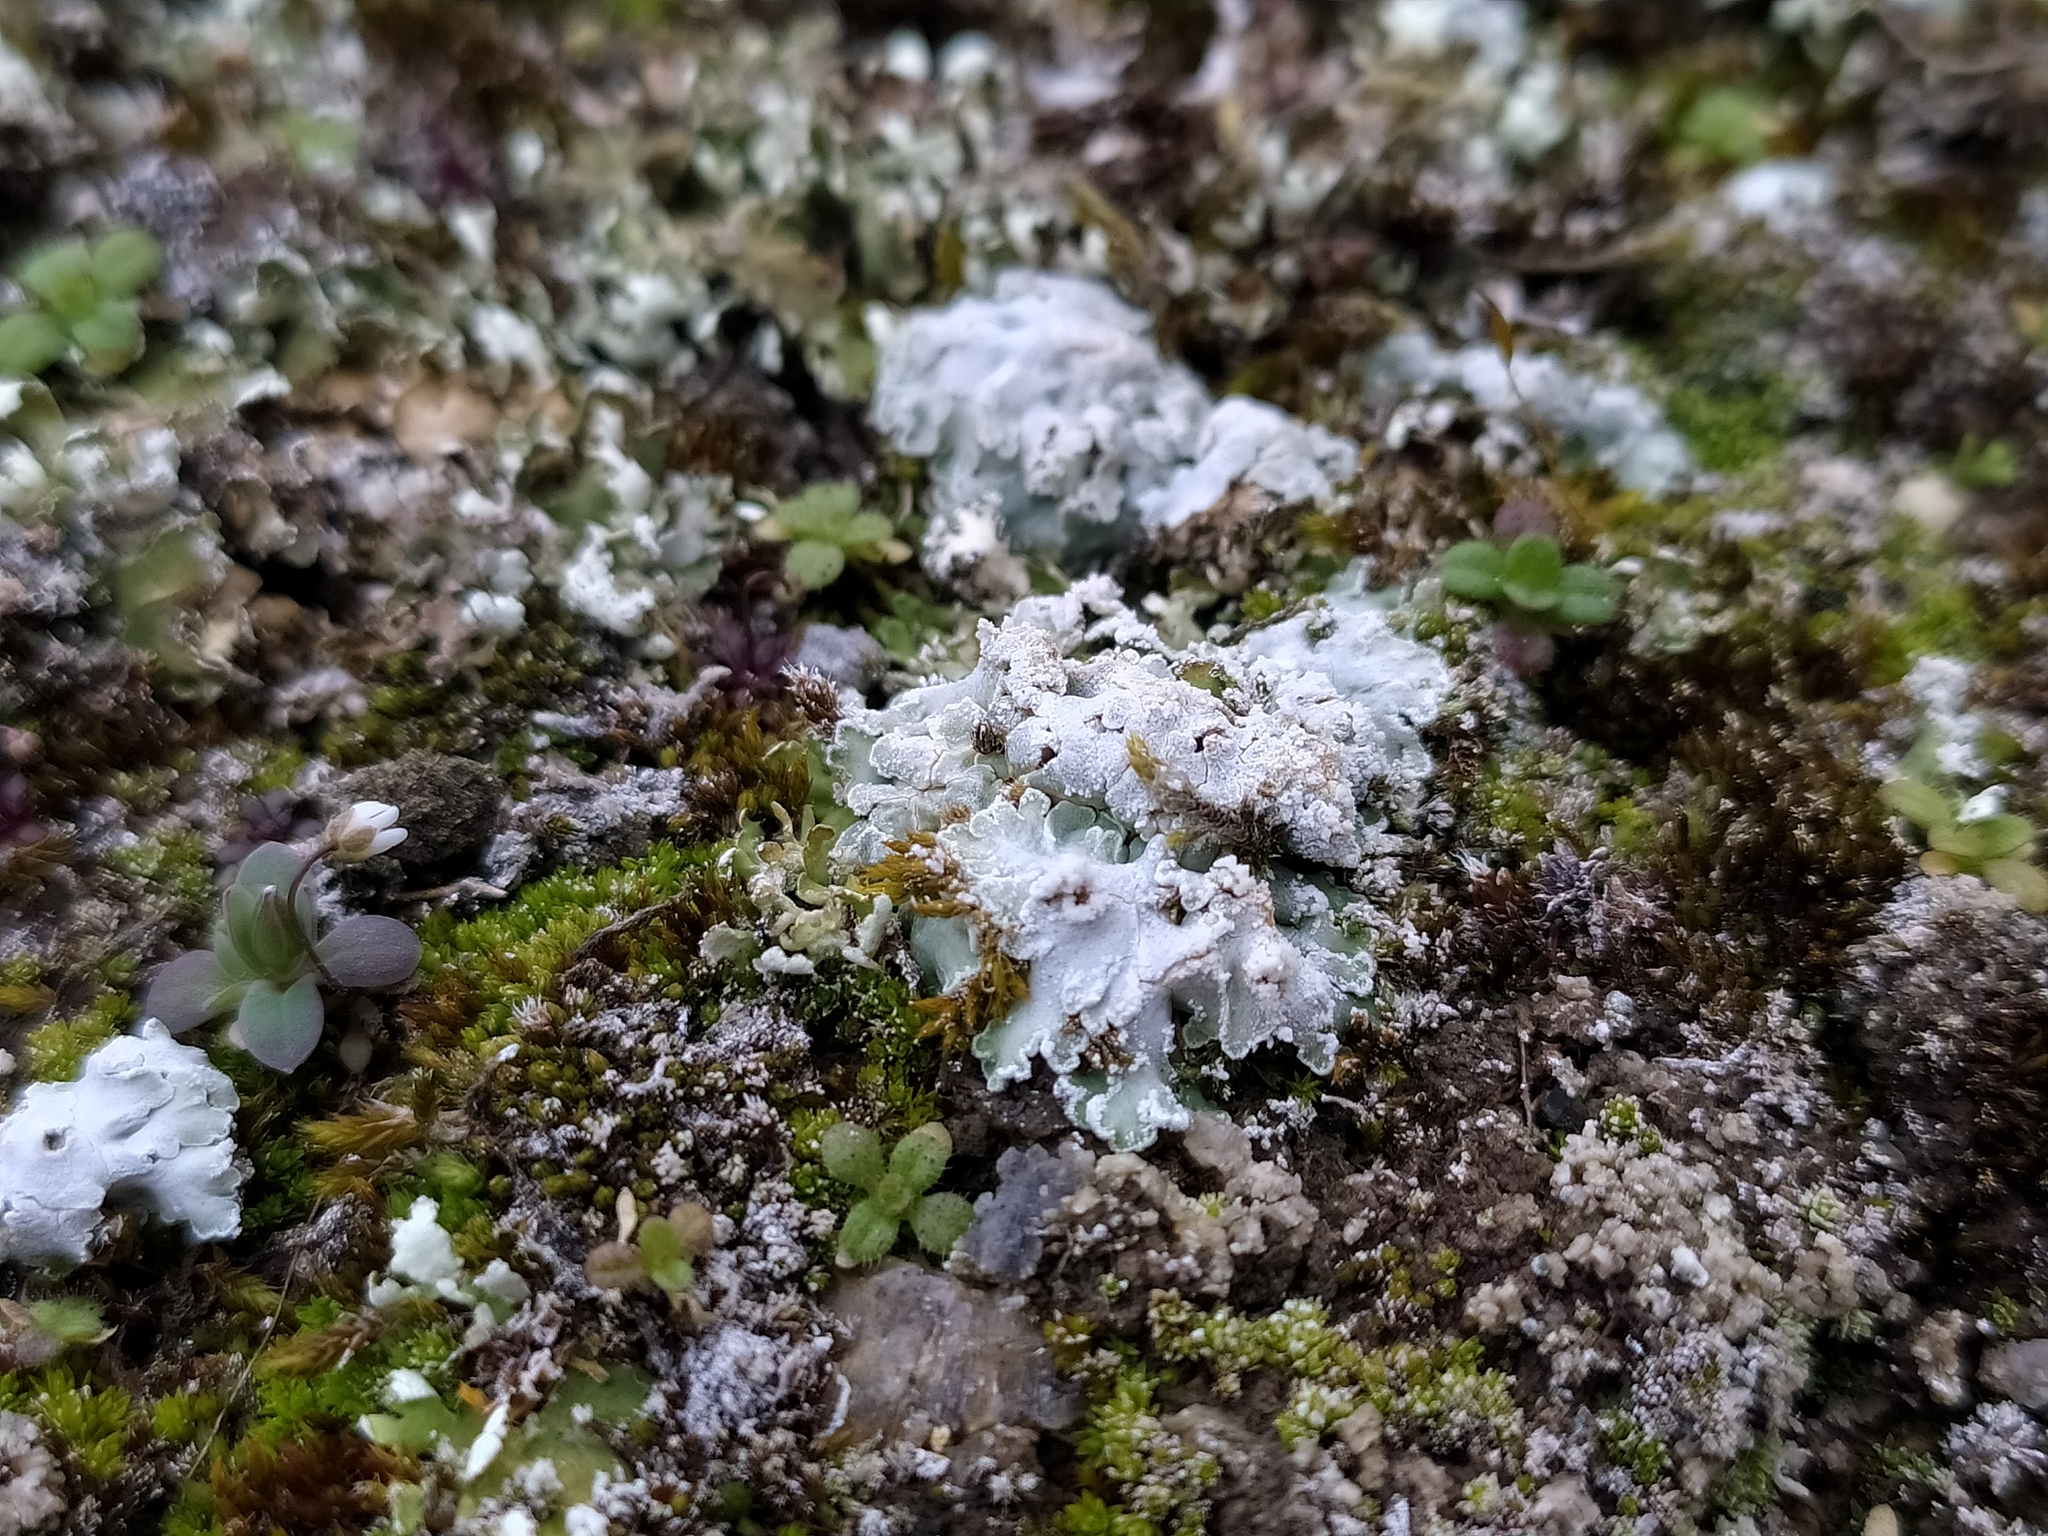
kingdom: Fungi
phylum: Ascomycota
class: Lecanoromycetes
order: Lecanorales
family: Stereocaulaceae
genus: Squamarina
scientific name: Squamarina lentigera
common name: Scaly breck-lichen
